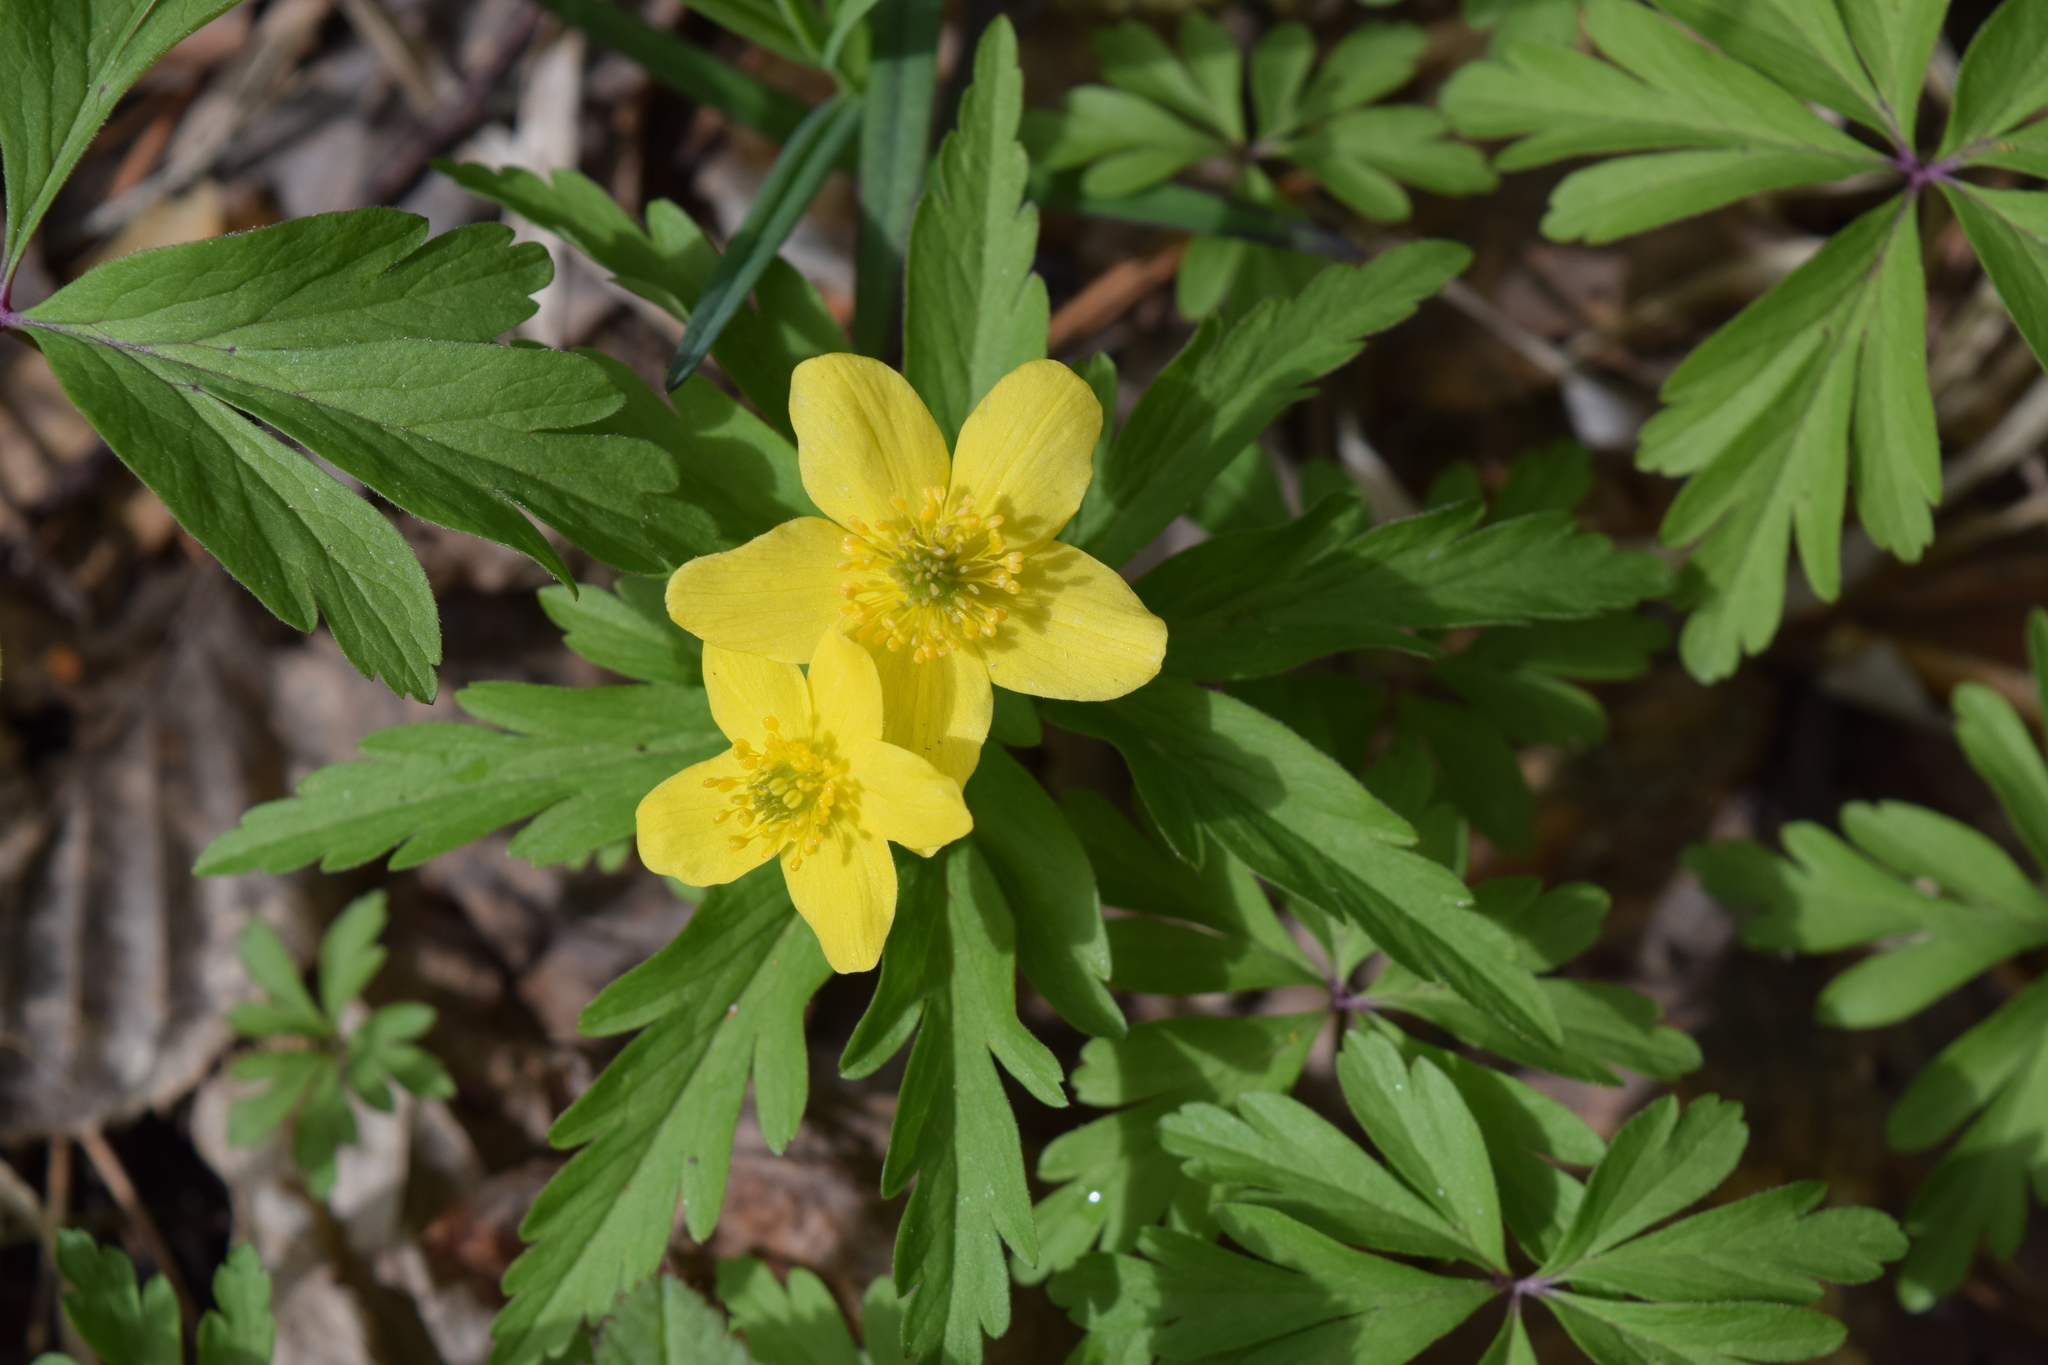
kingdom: Plantae
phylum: Tracheophyta
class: Magnoliopsida
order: Ranunculales
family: Ranunculaceae
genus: Anemone
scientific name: Anemone ranunculoides
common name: Yellow anemone
